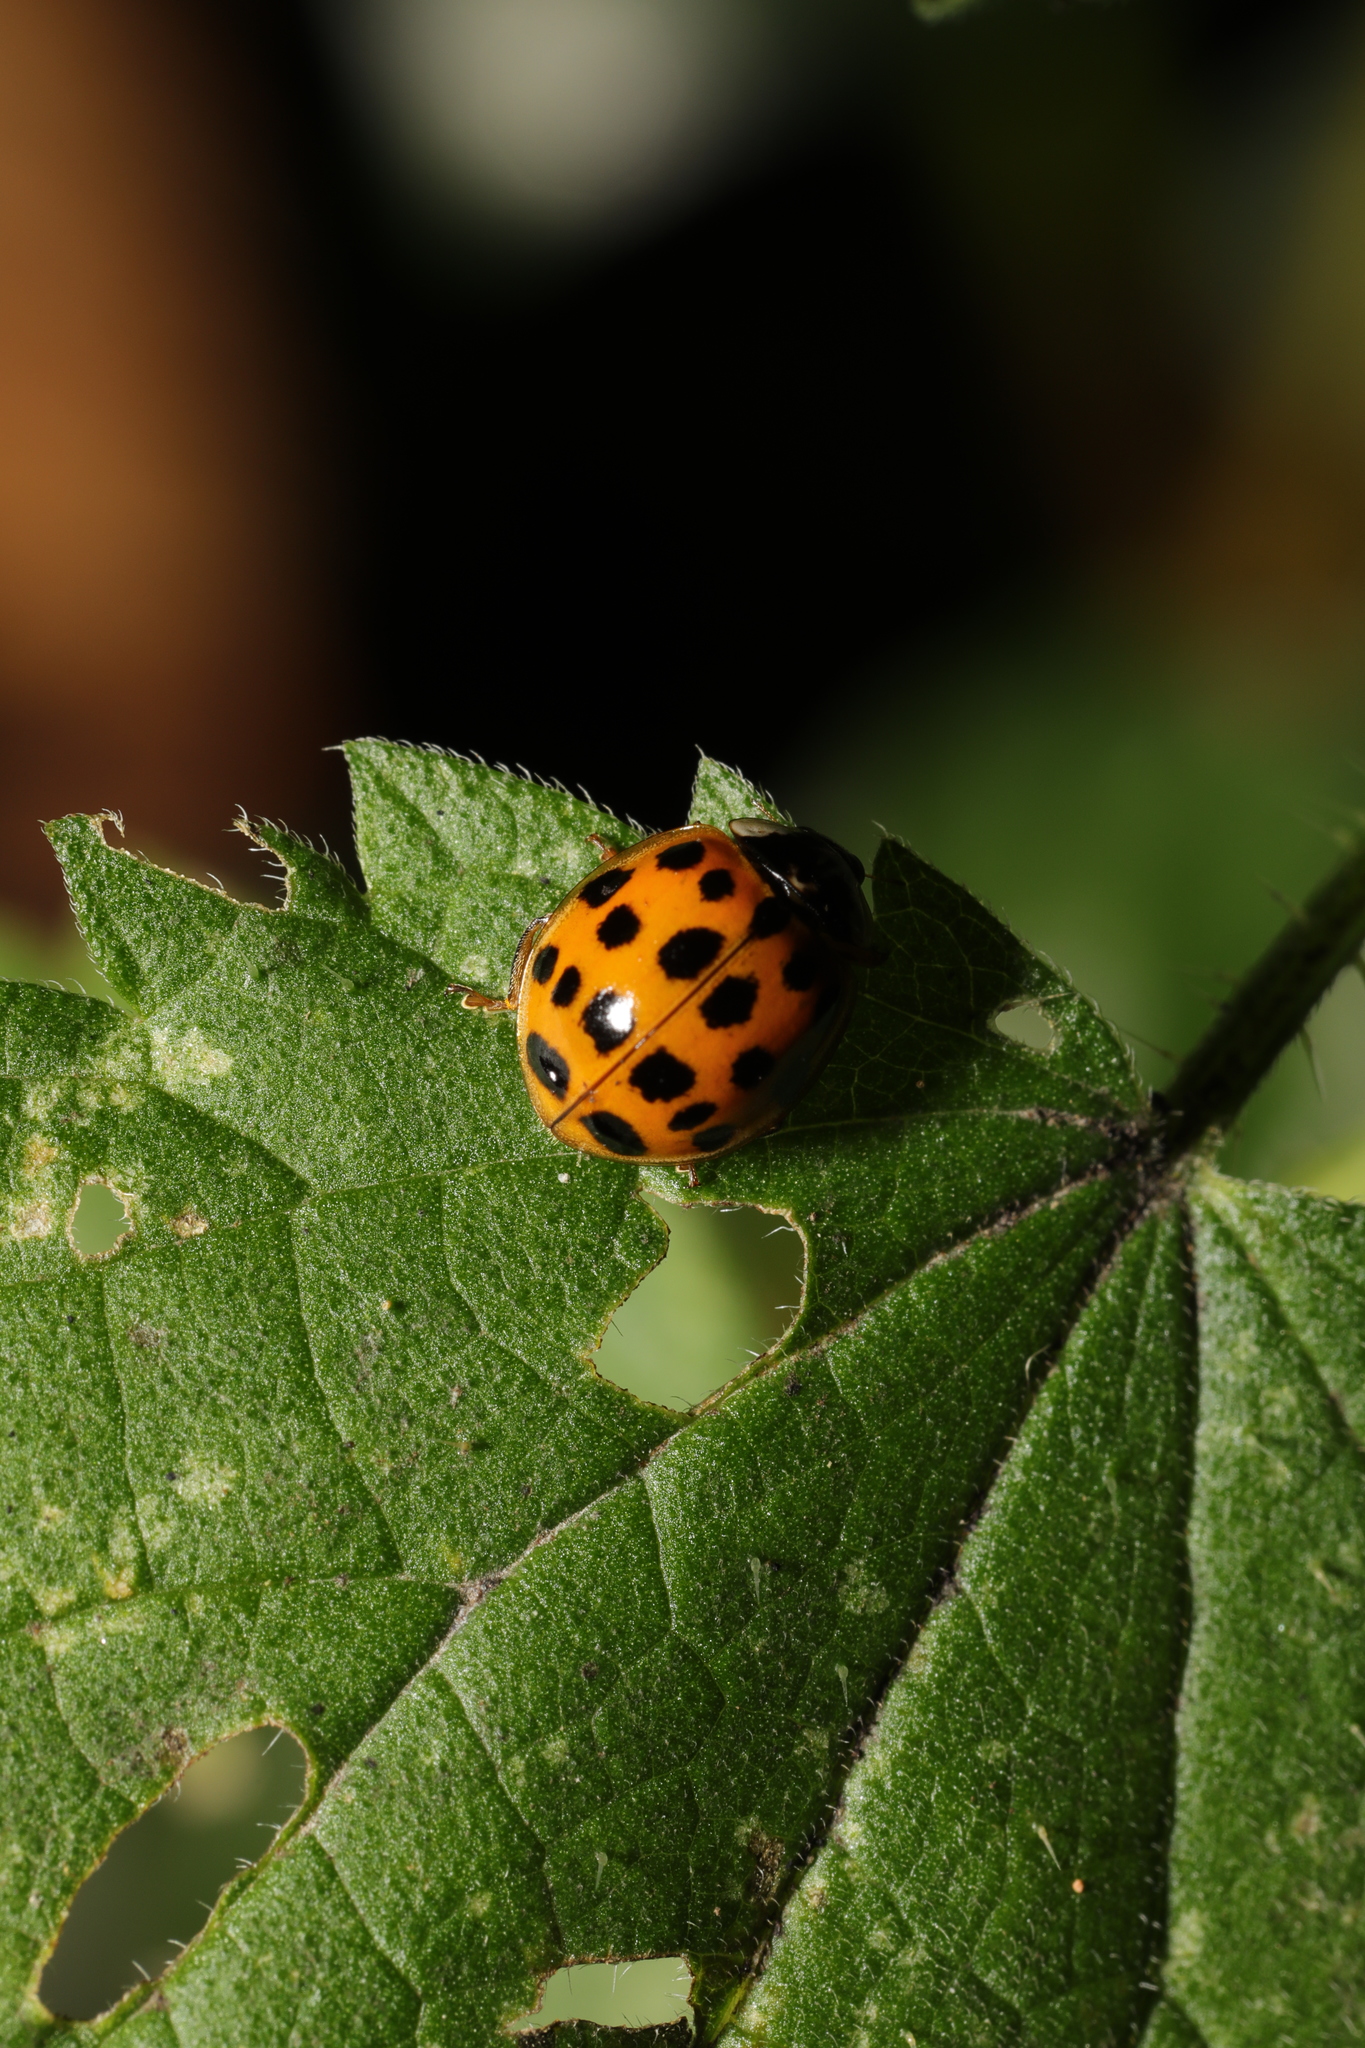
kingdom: Animalia
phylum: Arthropoda
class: Insecta
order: Coleoptera
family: Coccinellidae
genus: Harmonia
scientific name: Harmonia axyridis
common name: Harlequin ladybird
